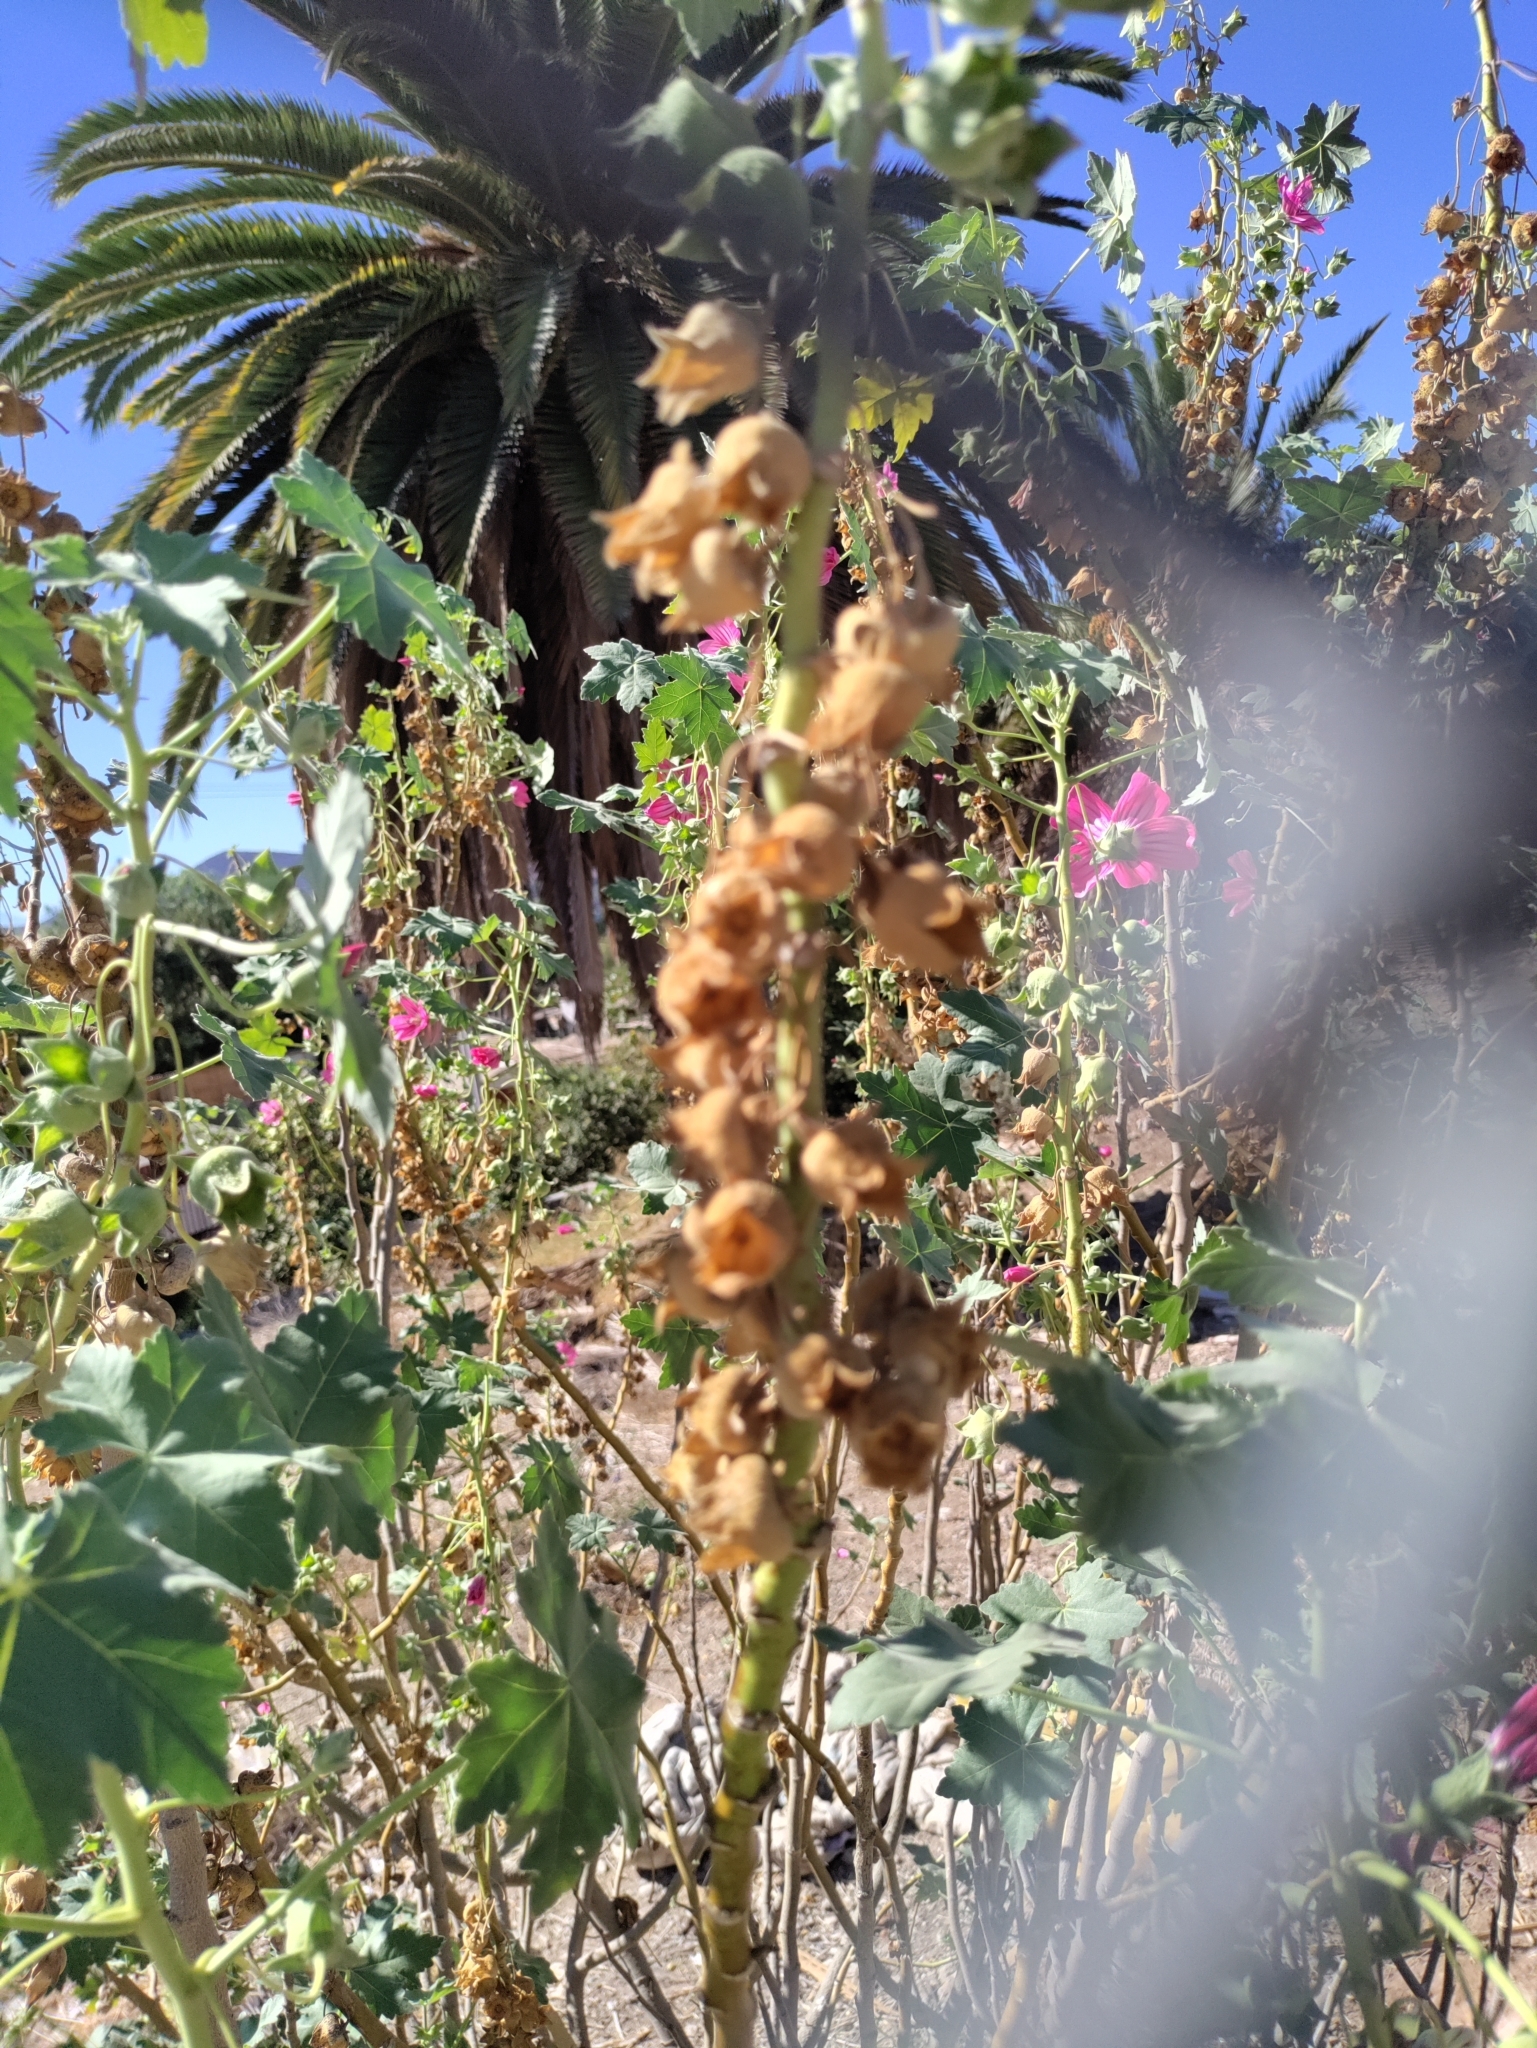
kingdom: Plantae
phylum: Tracheophyta
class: Magnoliopsida
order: Malvales
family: Malvaceae
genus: Malva
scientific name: Malva assurgentiflora
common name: Island mallow
